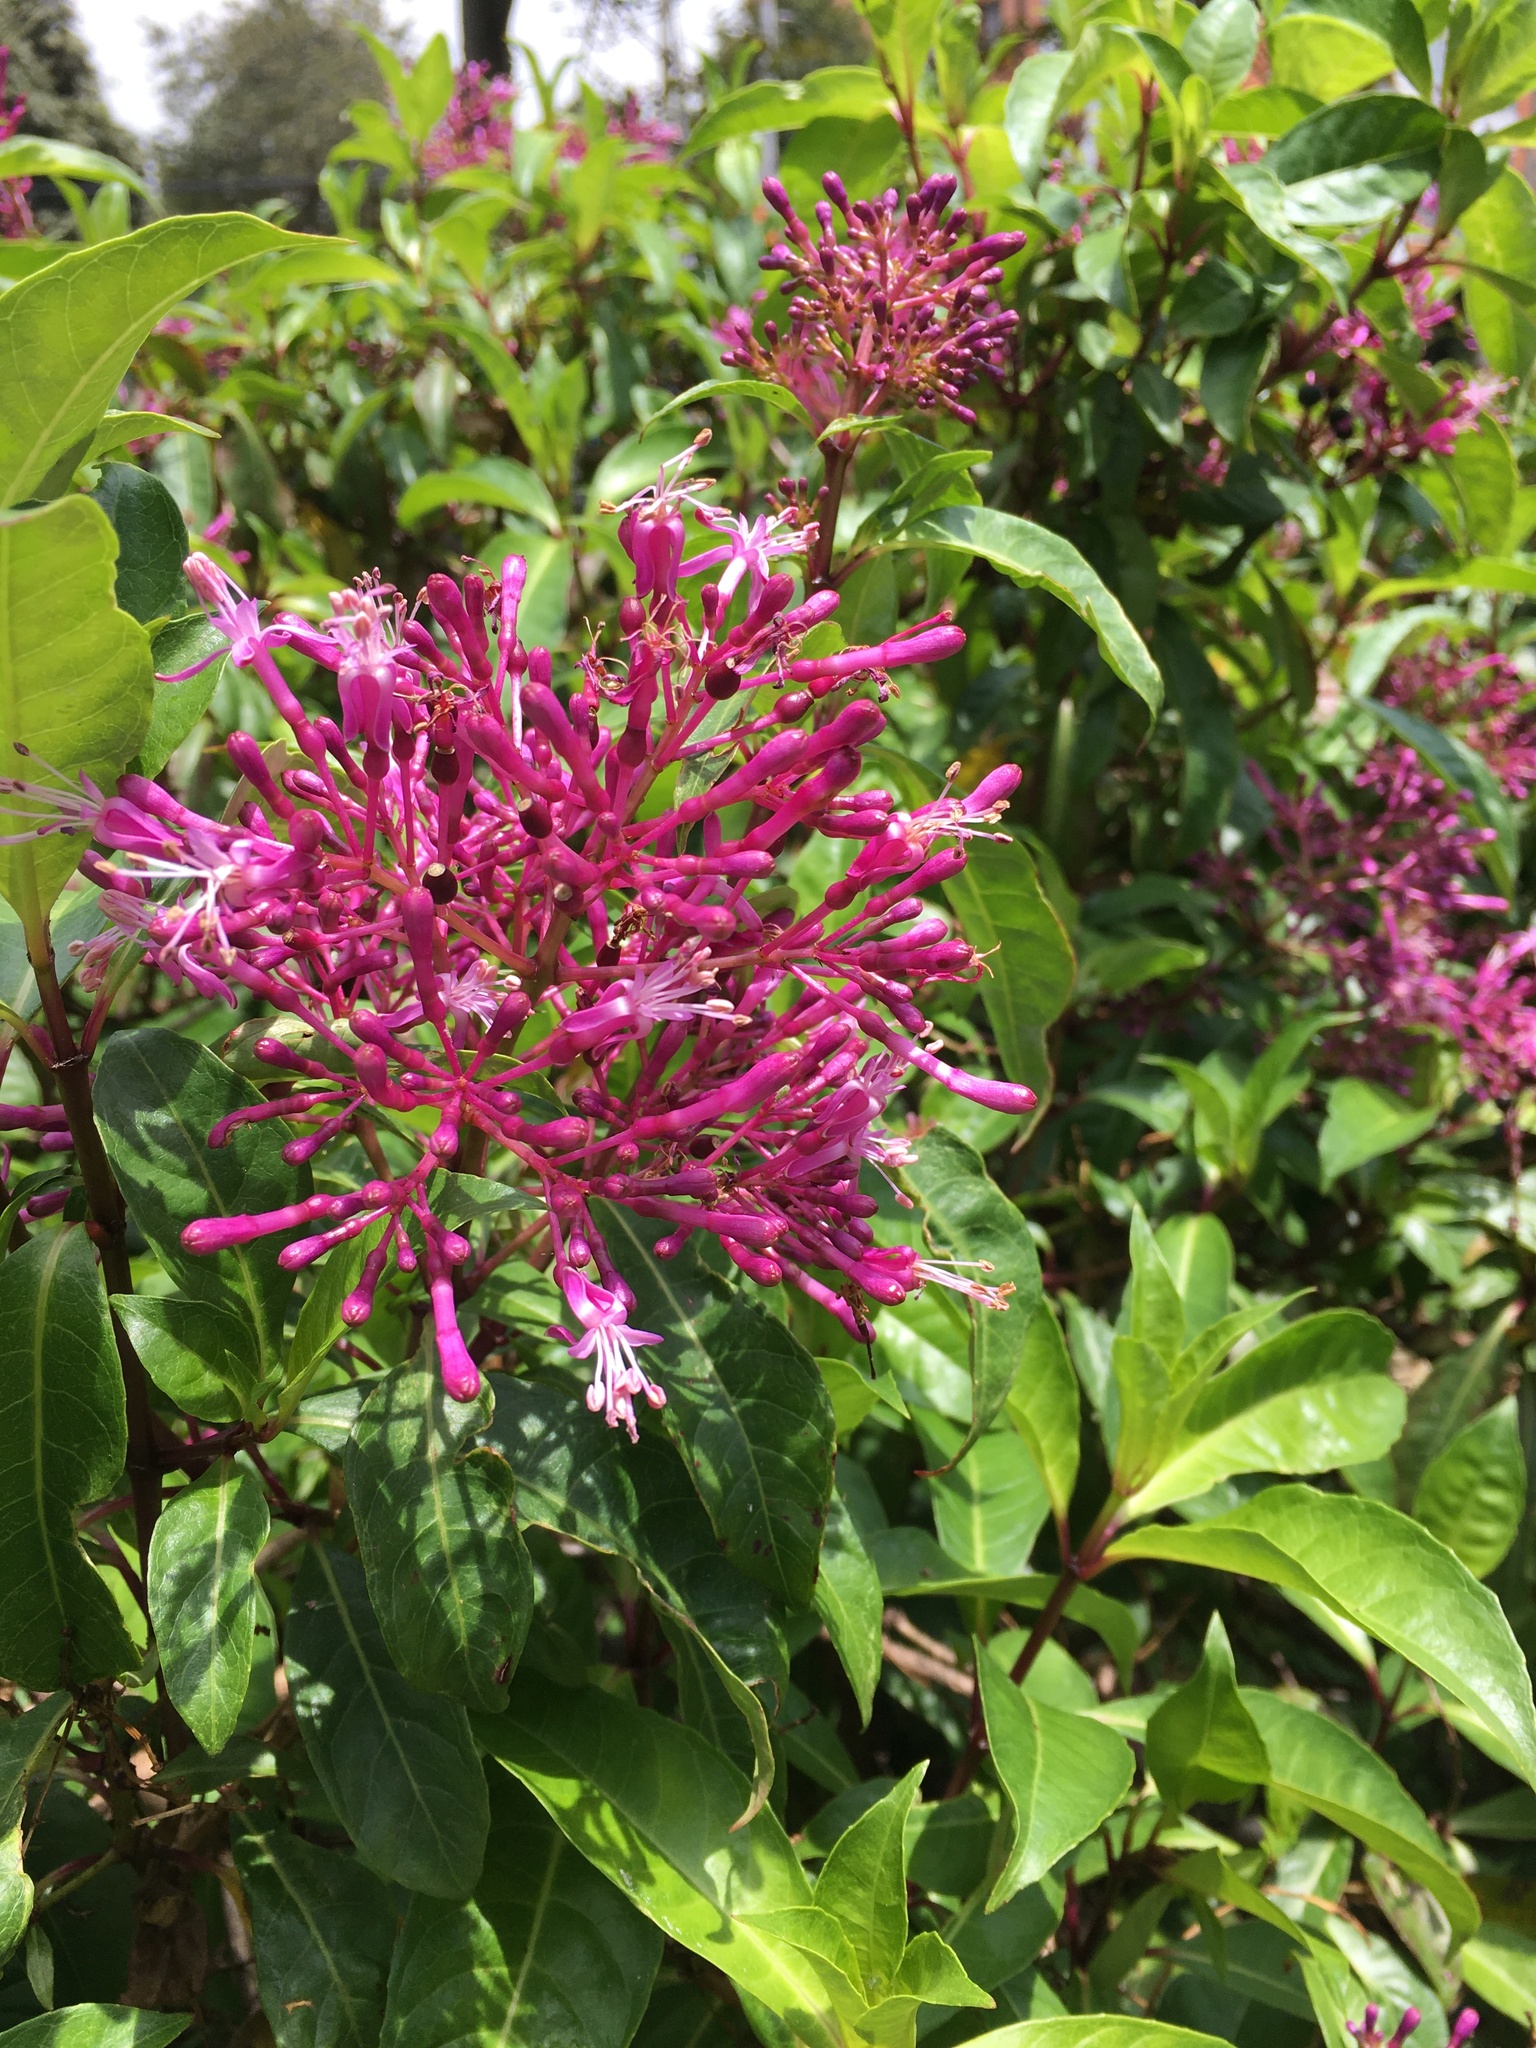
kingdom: Plantae
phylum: Tracheophyta
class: Magnoliopsida
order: Myrtales
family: Onagraceae
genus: Fuchsia
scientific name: Fuchsia paniculata
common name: Shrubby fuchsia
